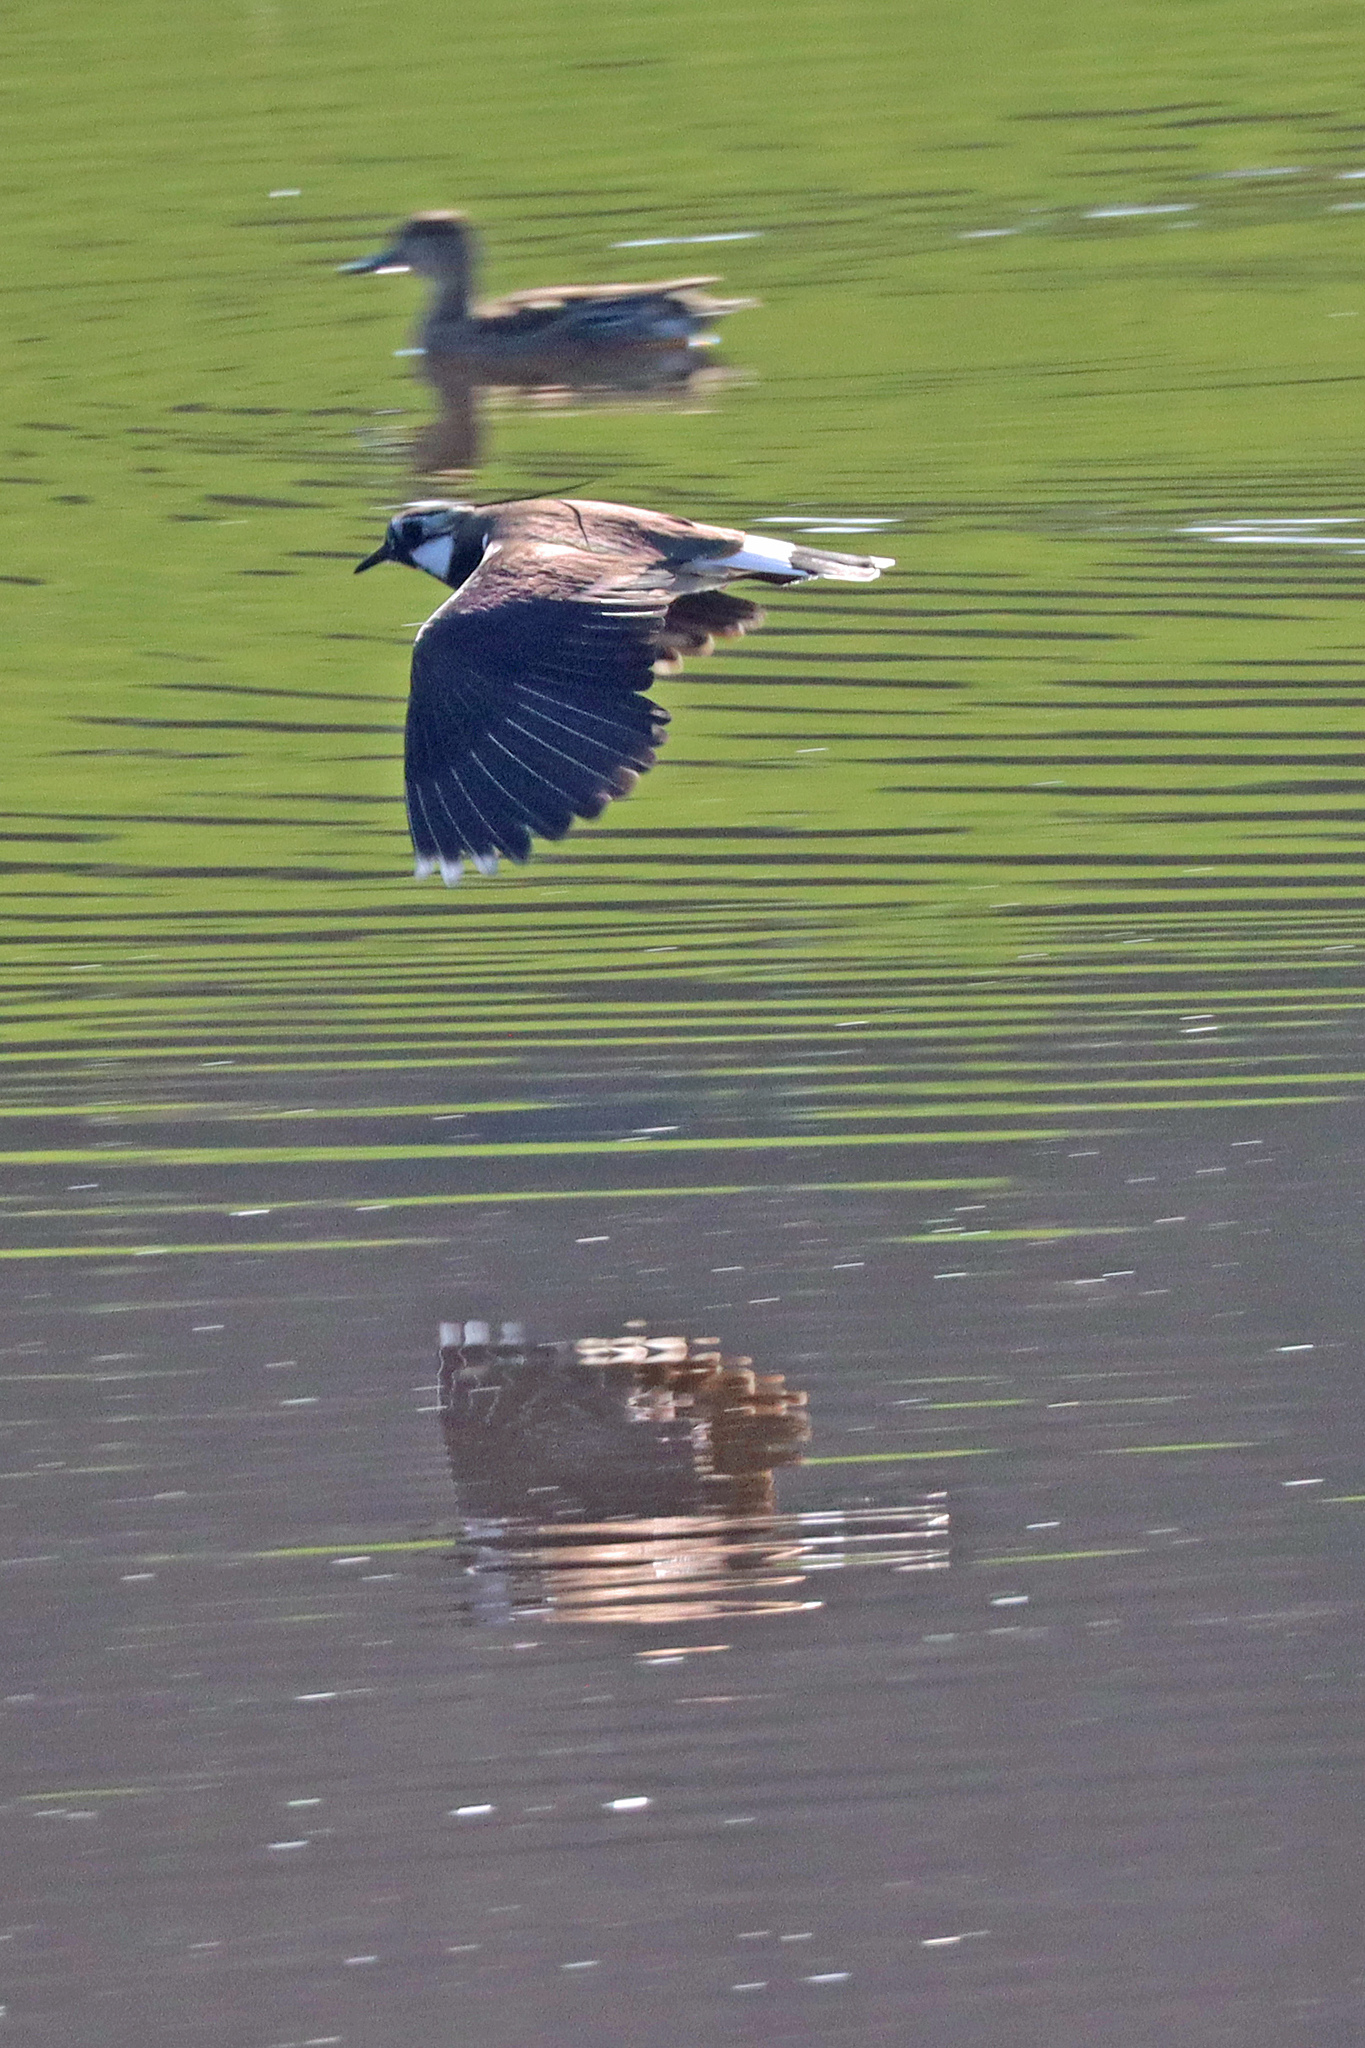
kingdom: Animalia
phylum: Chordata
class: Aves
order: Charadriiformes
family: Charadriidae
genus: Vanellus
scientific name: Vanellus vanellus
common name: Northern lapwing
